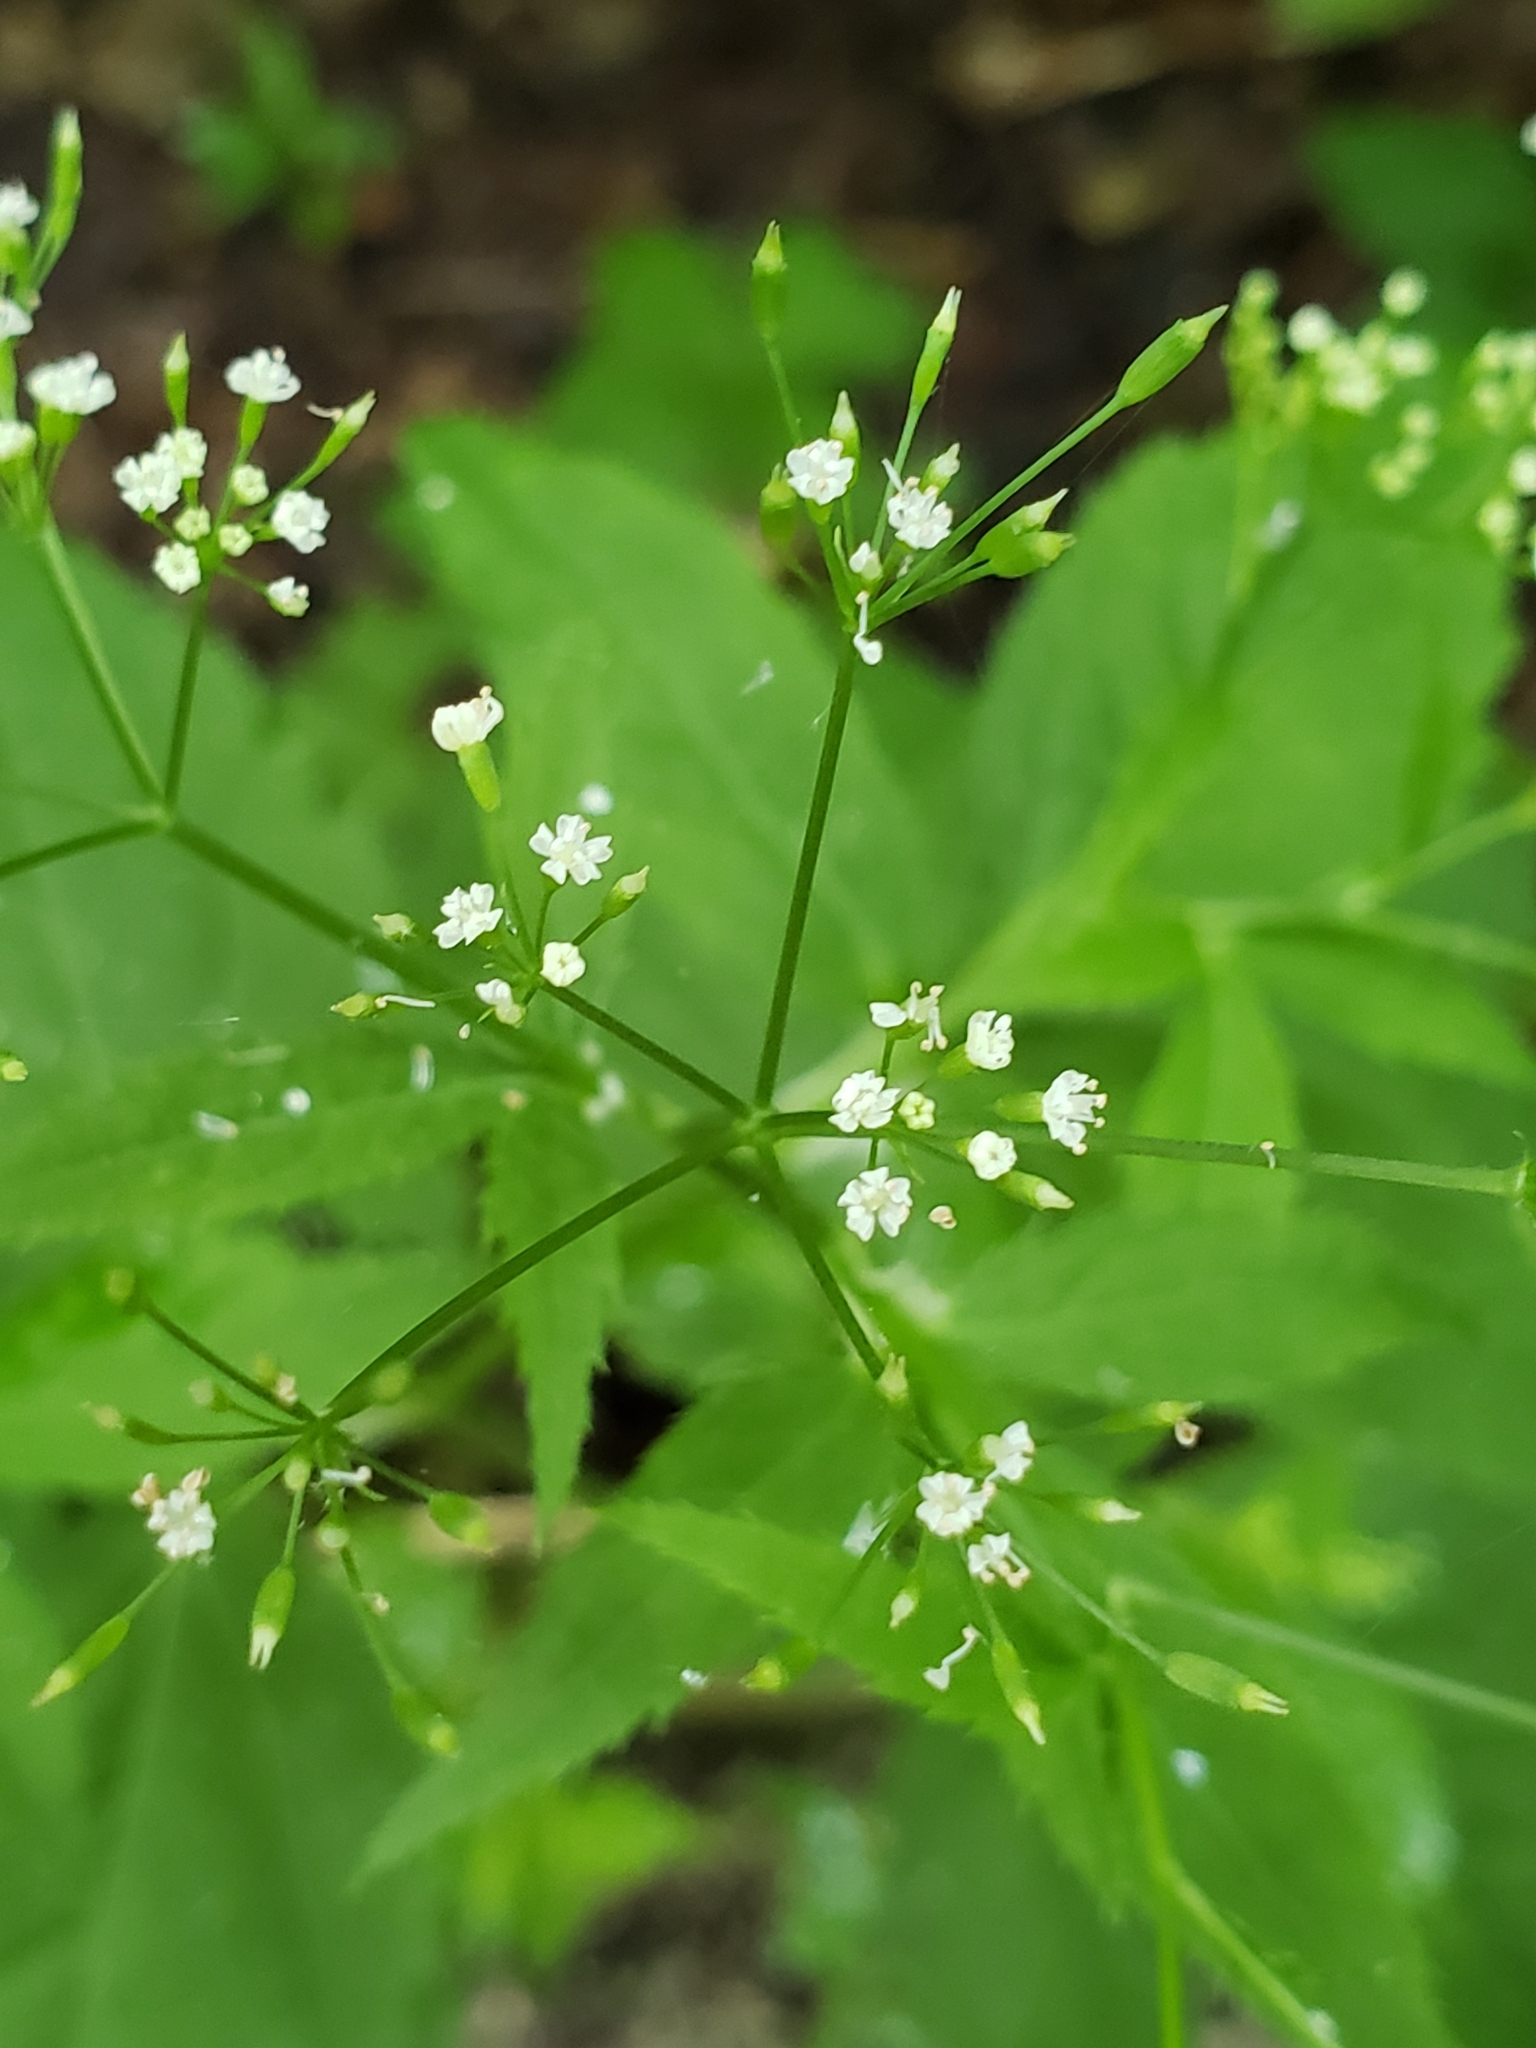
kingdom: Plantae
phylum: Tracheophyta
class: Magnoliopsida
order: Apiales
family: Apiaceae
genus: Cryptotaenia
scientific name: Cryptotaenia canadensis
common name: Honewort
